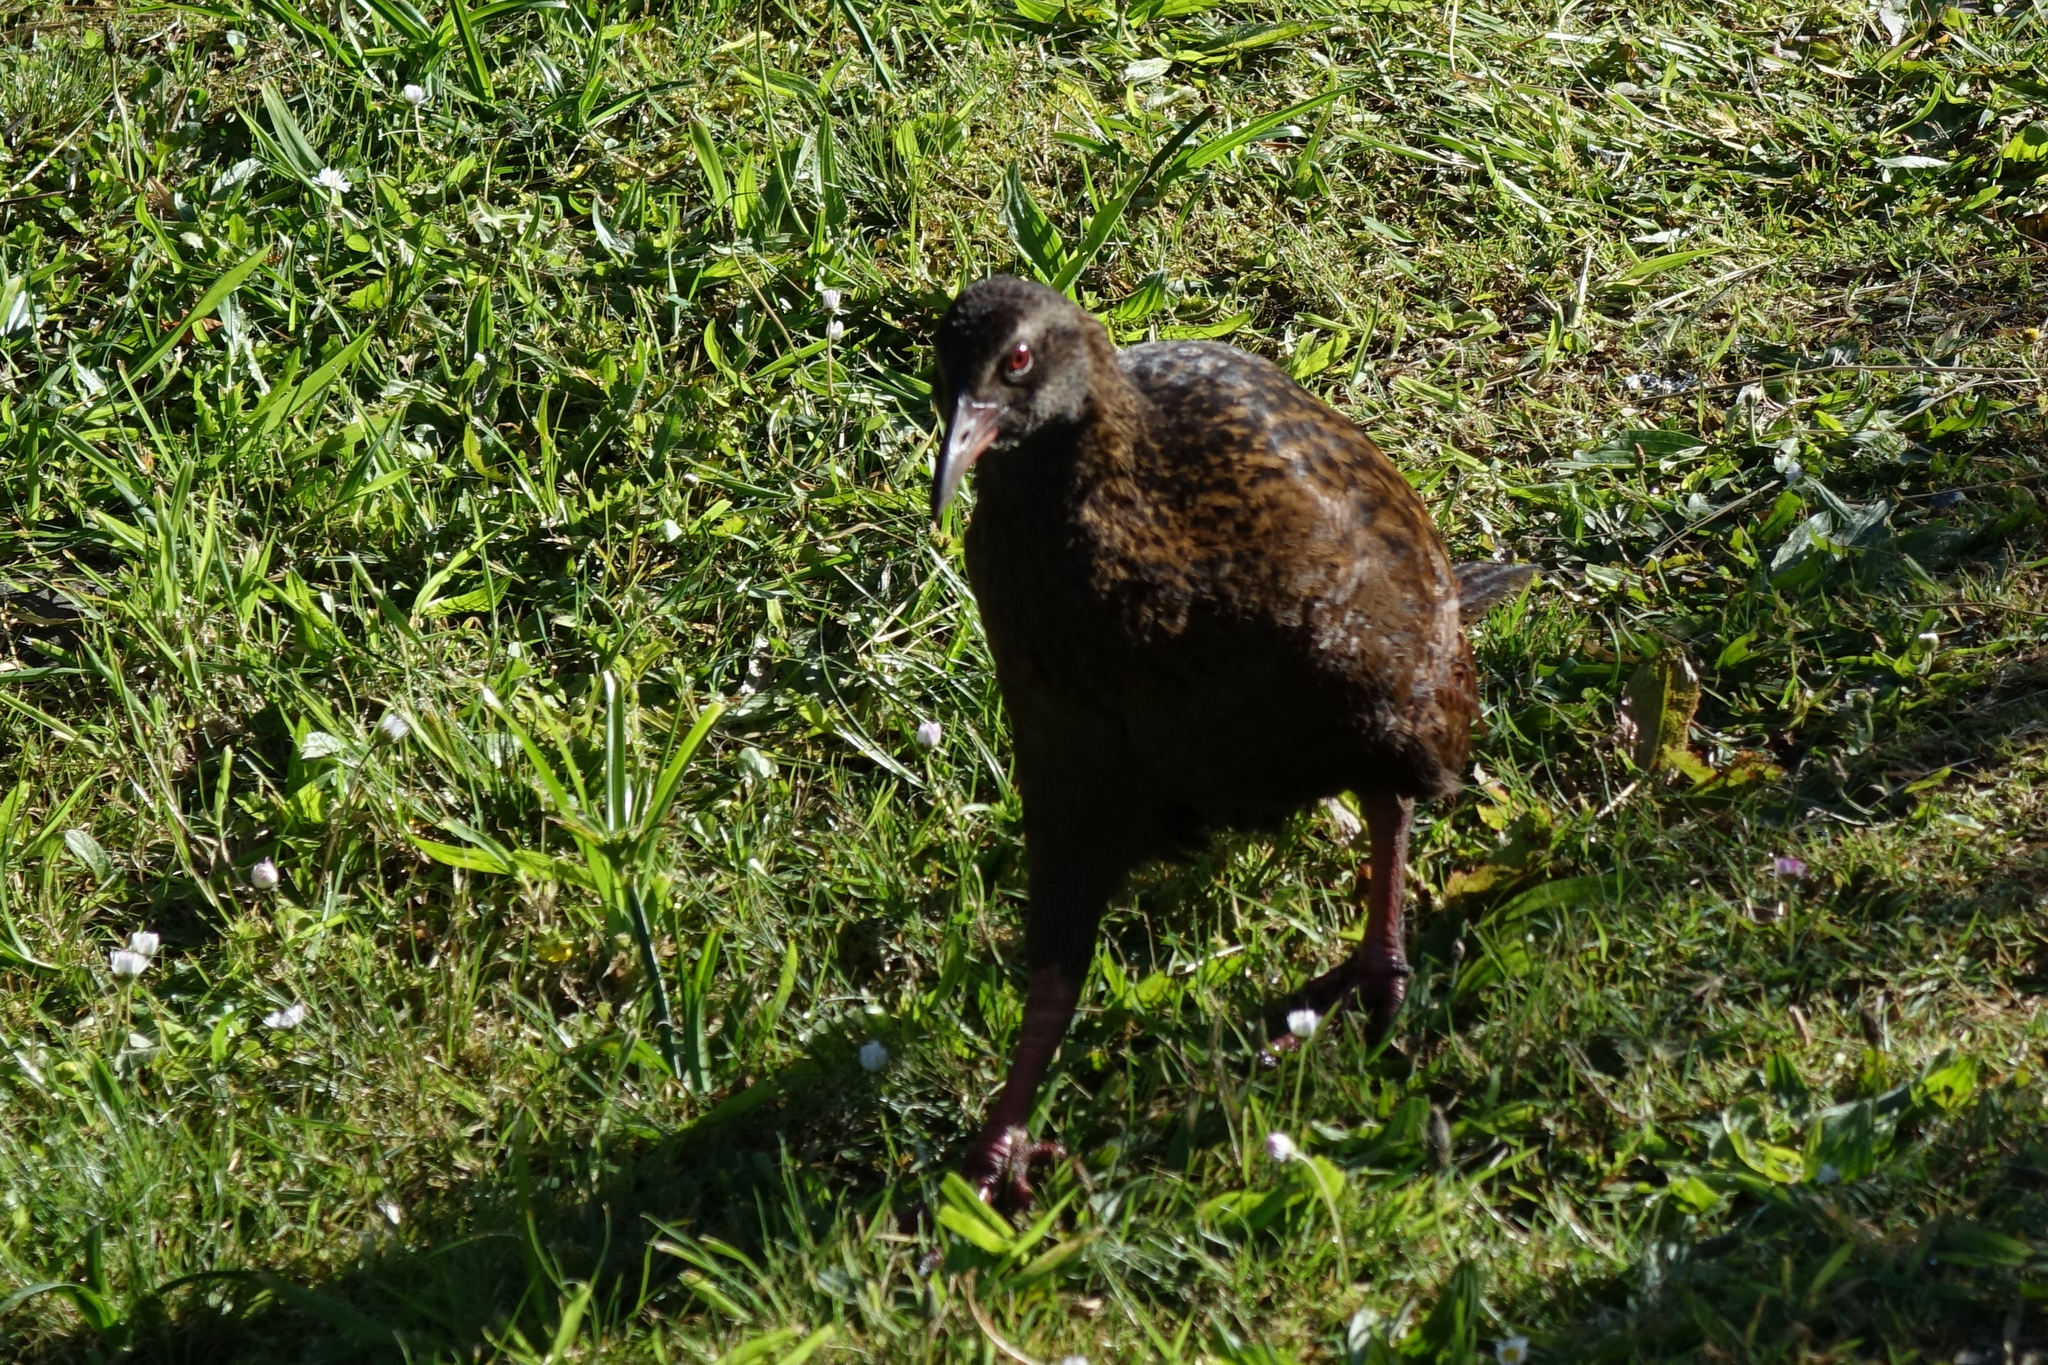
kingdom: Animalia
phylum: Chordata
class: Aves
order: Gruiformes
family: Rallidae
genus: Gallirallus
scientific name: Gallirallus australis
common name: Weka
